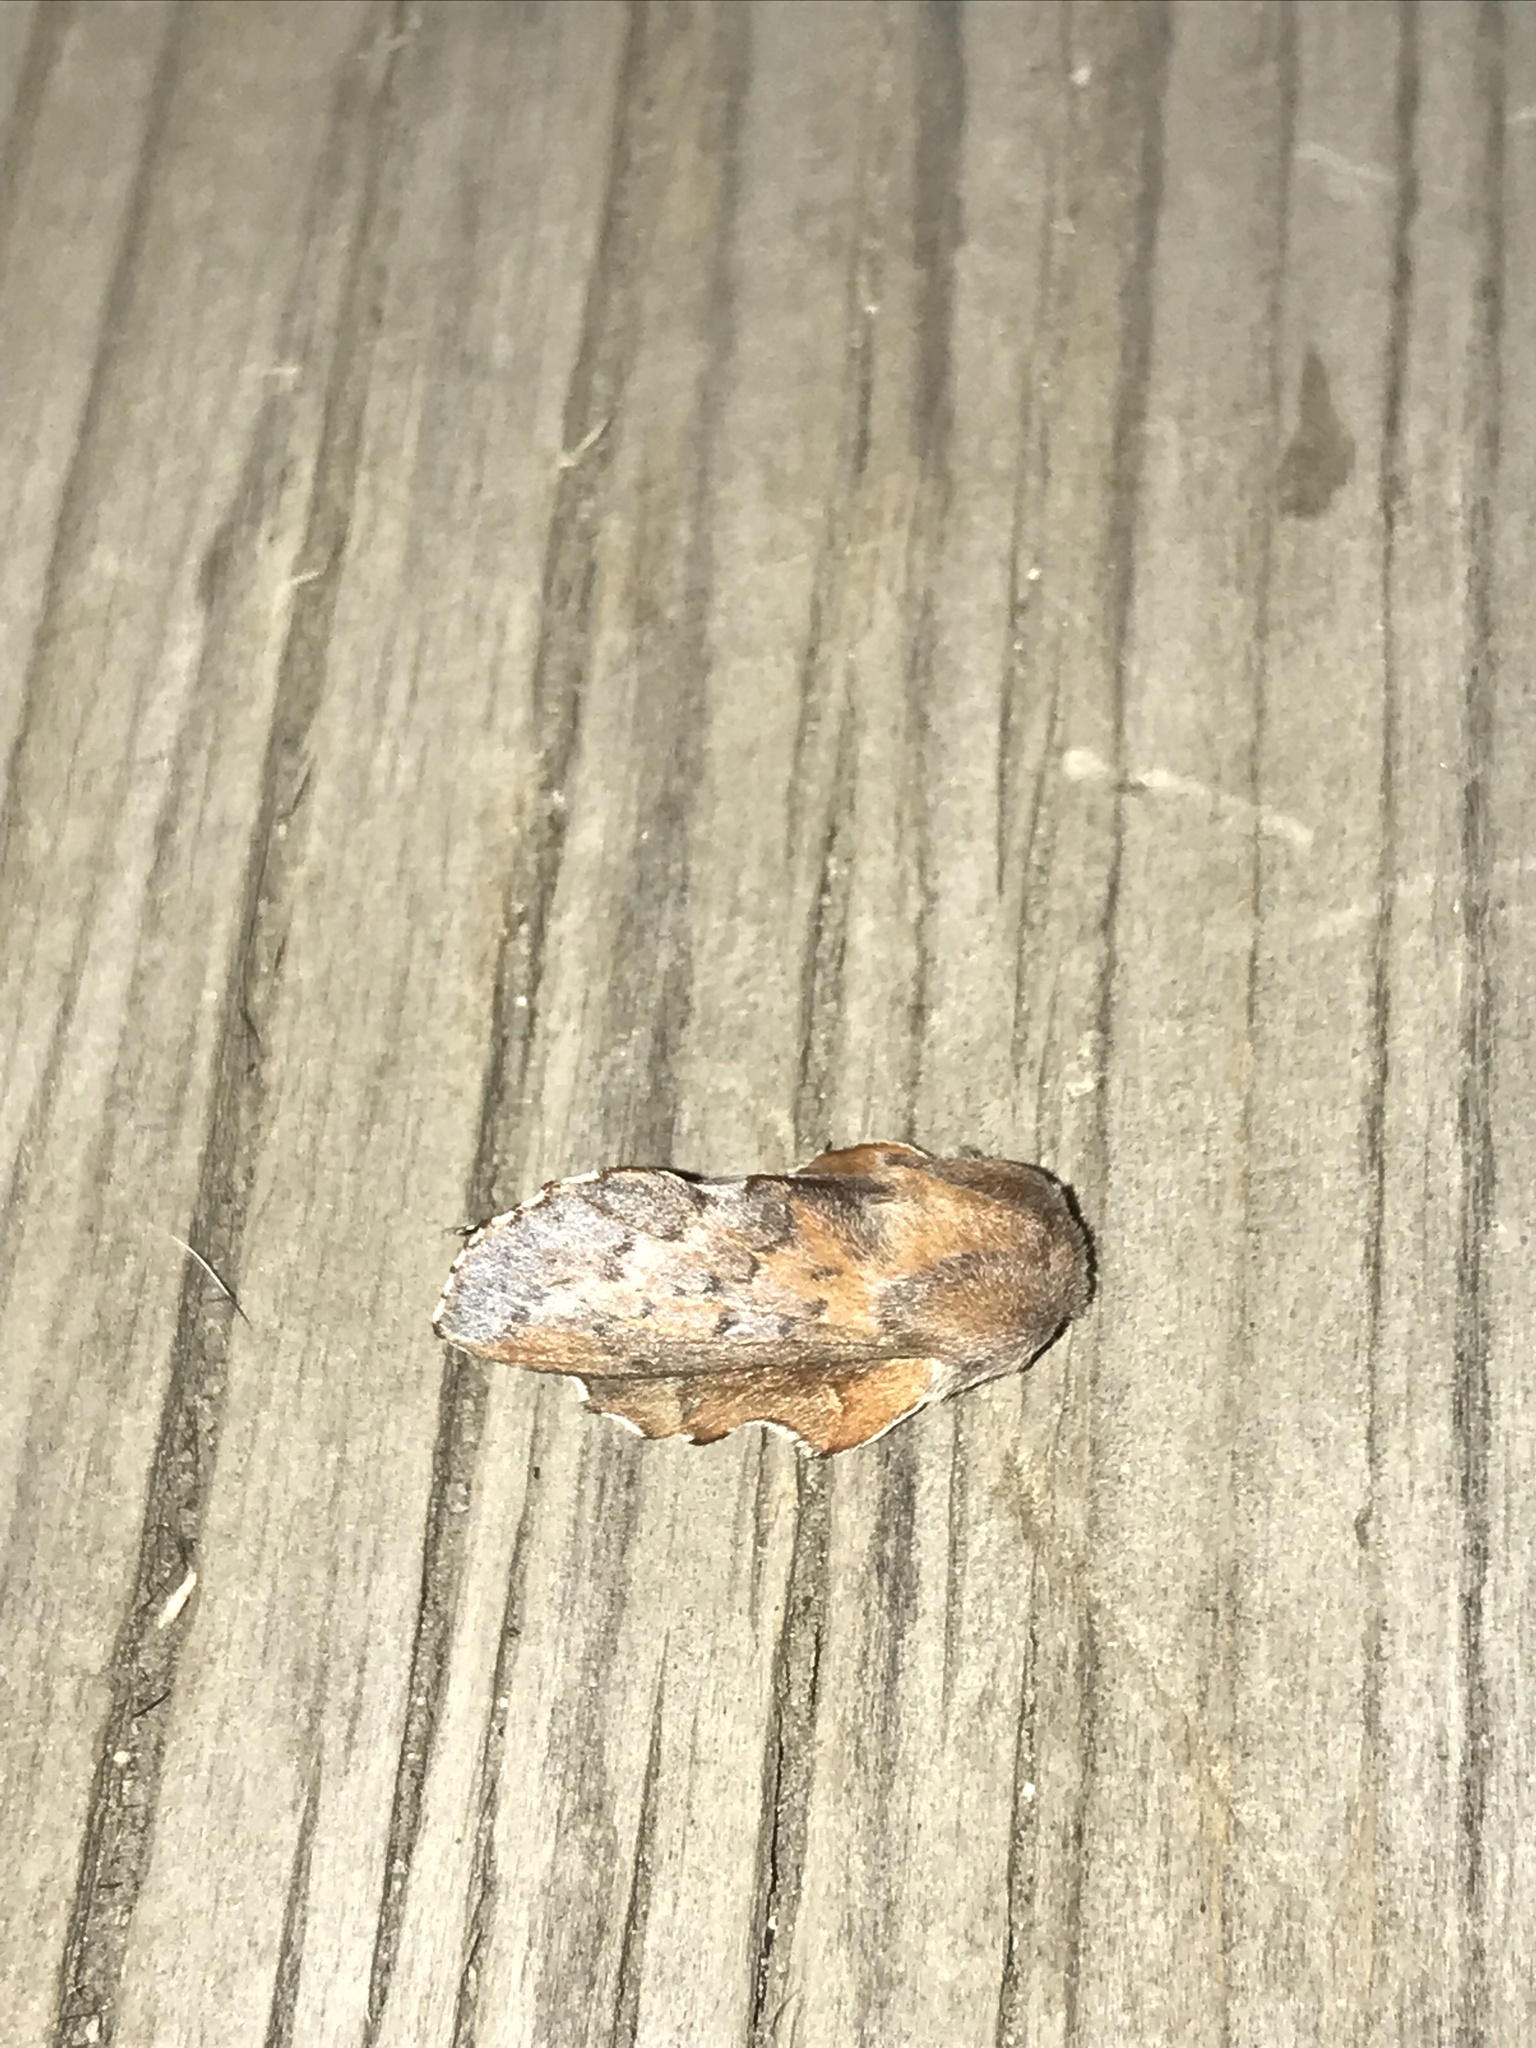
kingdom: Animalia
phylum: Arthropoda
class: Insecta
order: Lepidoptera
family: Lasiocampidae
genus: Phyllodesma
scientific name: Phyllodesma americana
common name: American lappet moth
